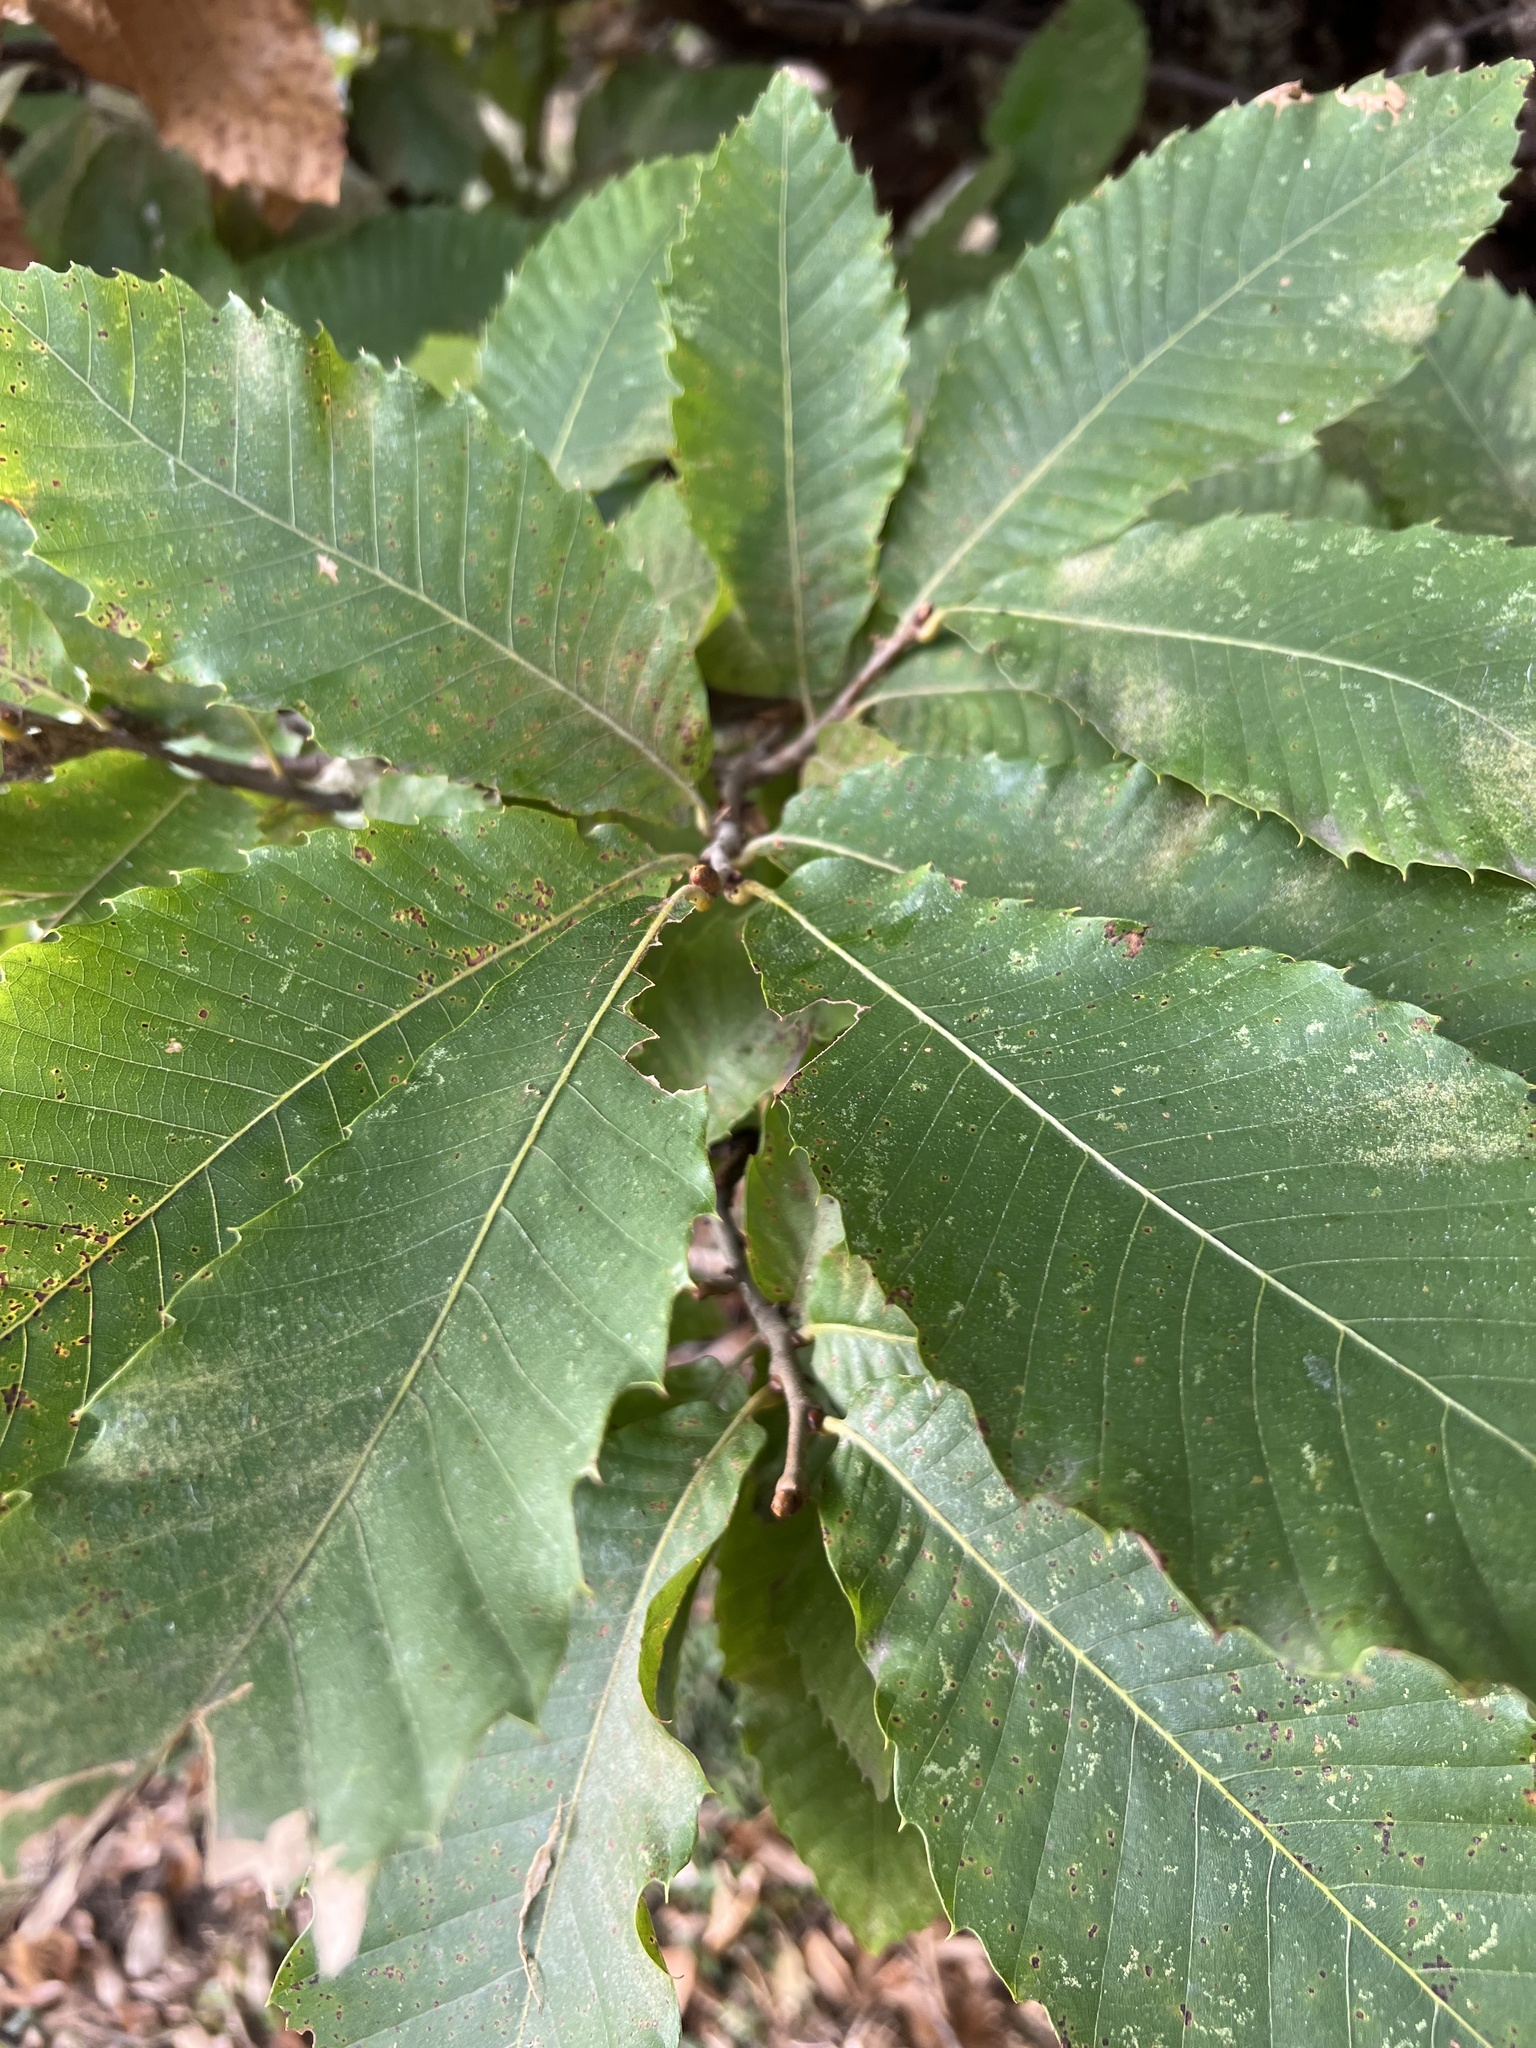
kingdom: Plantae
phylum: Tracheophyta
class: Magnoliopsida
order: Fagales
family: Fagaceae
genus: Castanea
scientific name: Castanea sativa
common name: Sweet chestnut
